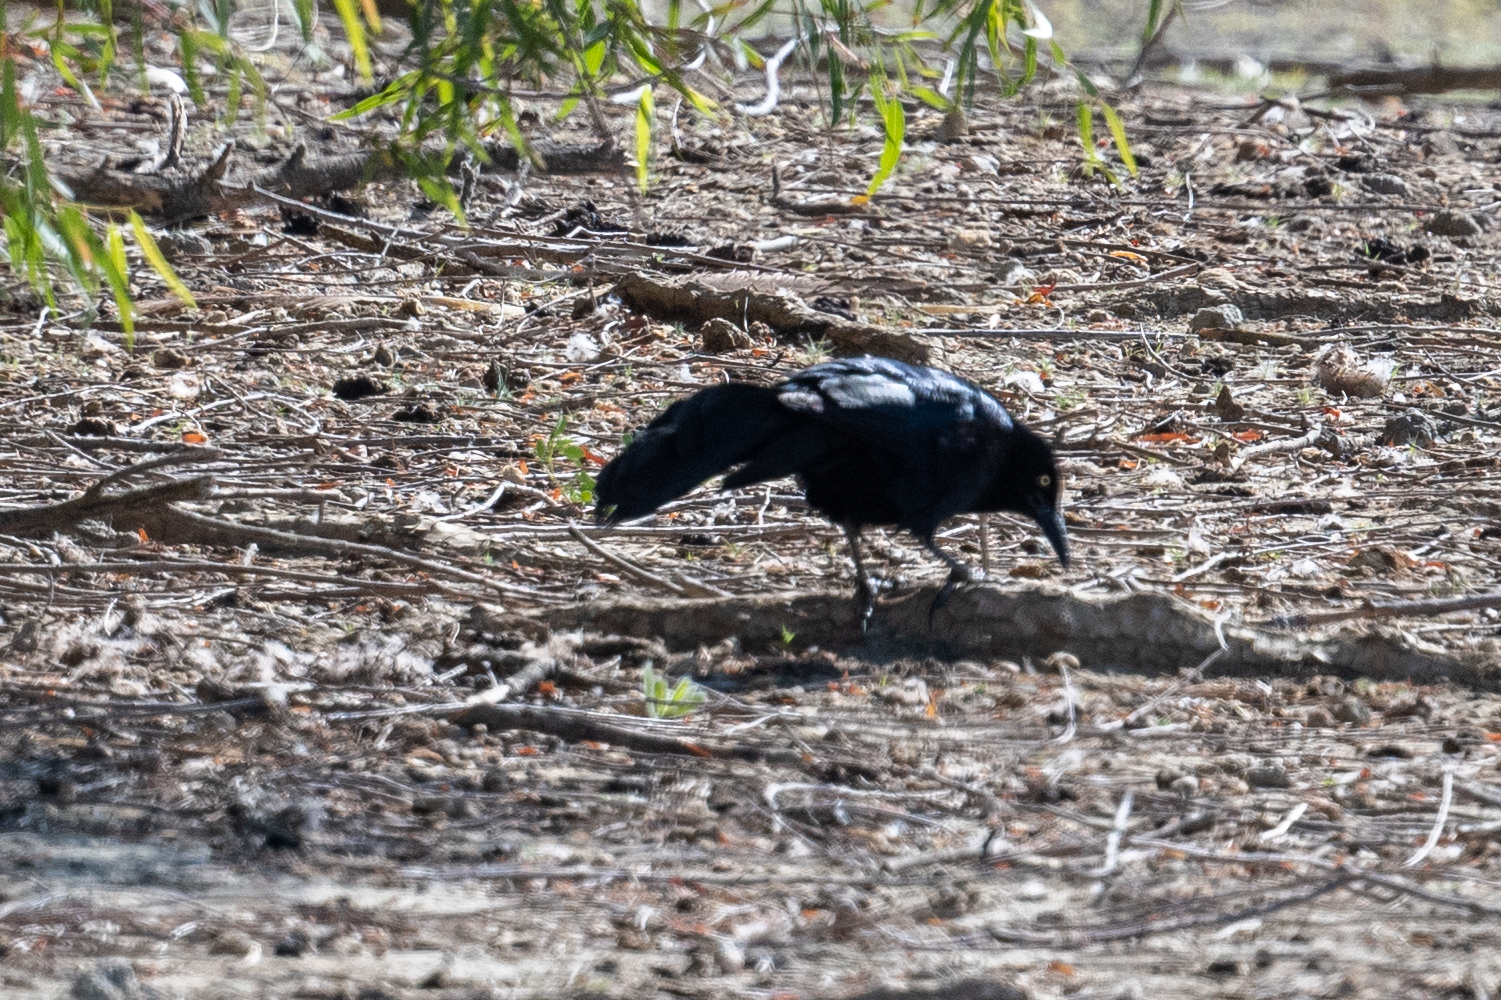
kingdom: Animalia
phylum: Chordata
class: Aves
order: Passeriformes
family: Icteridae
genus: Quiscalus
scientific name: Quiscalus mexicanus
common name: Great-tailed grackle
